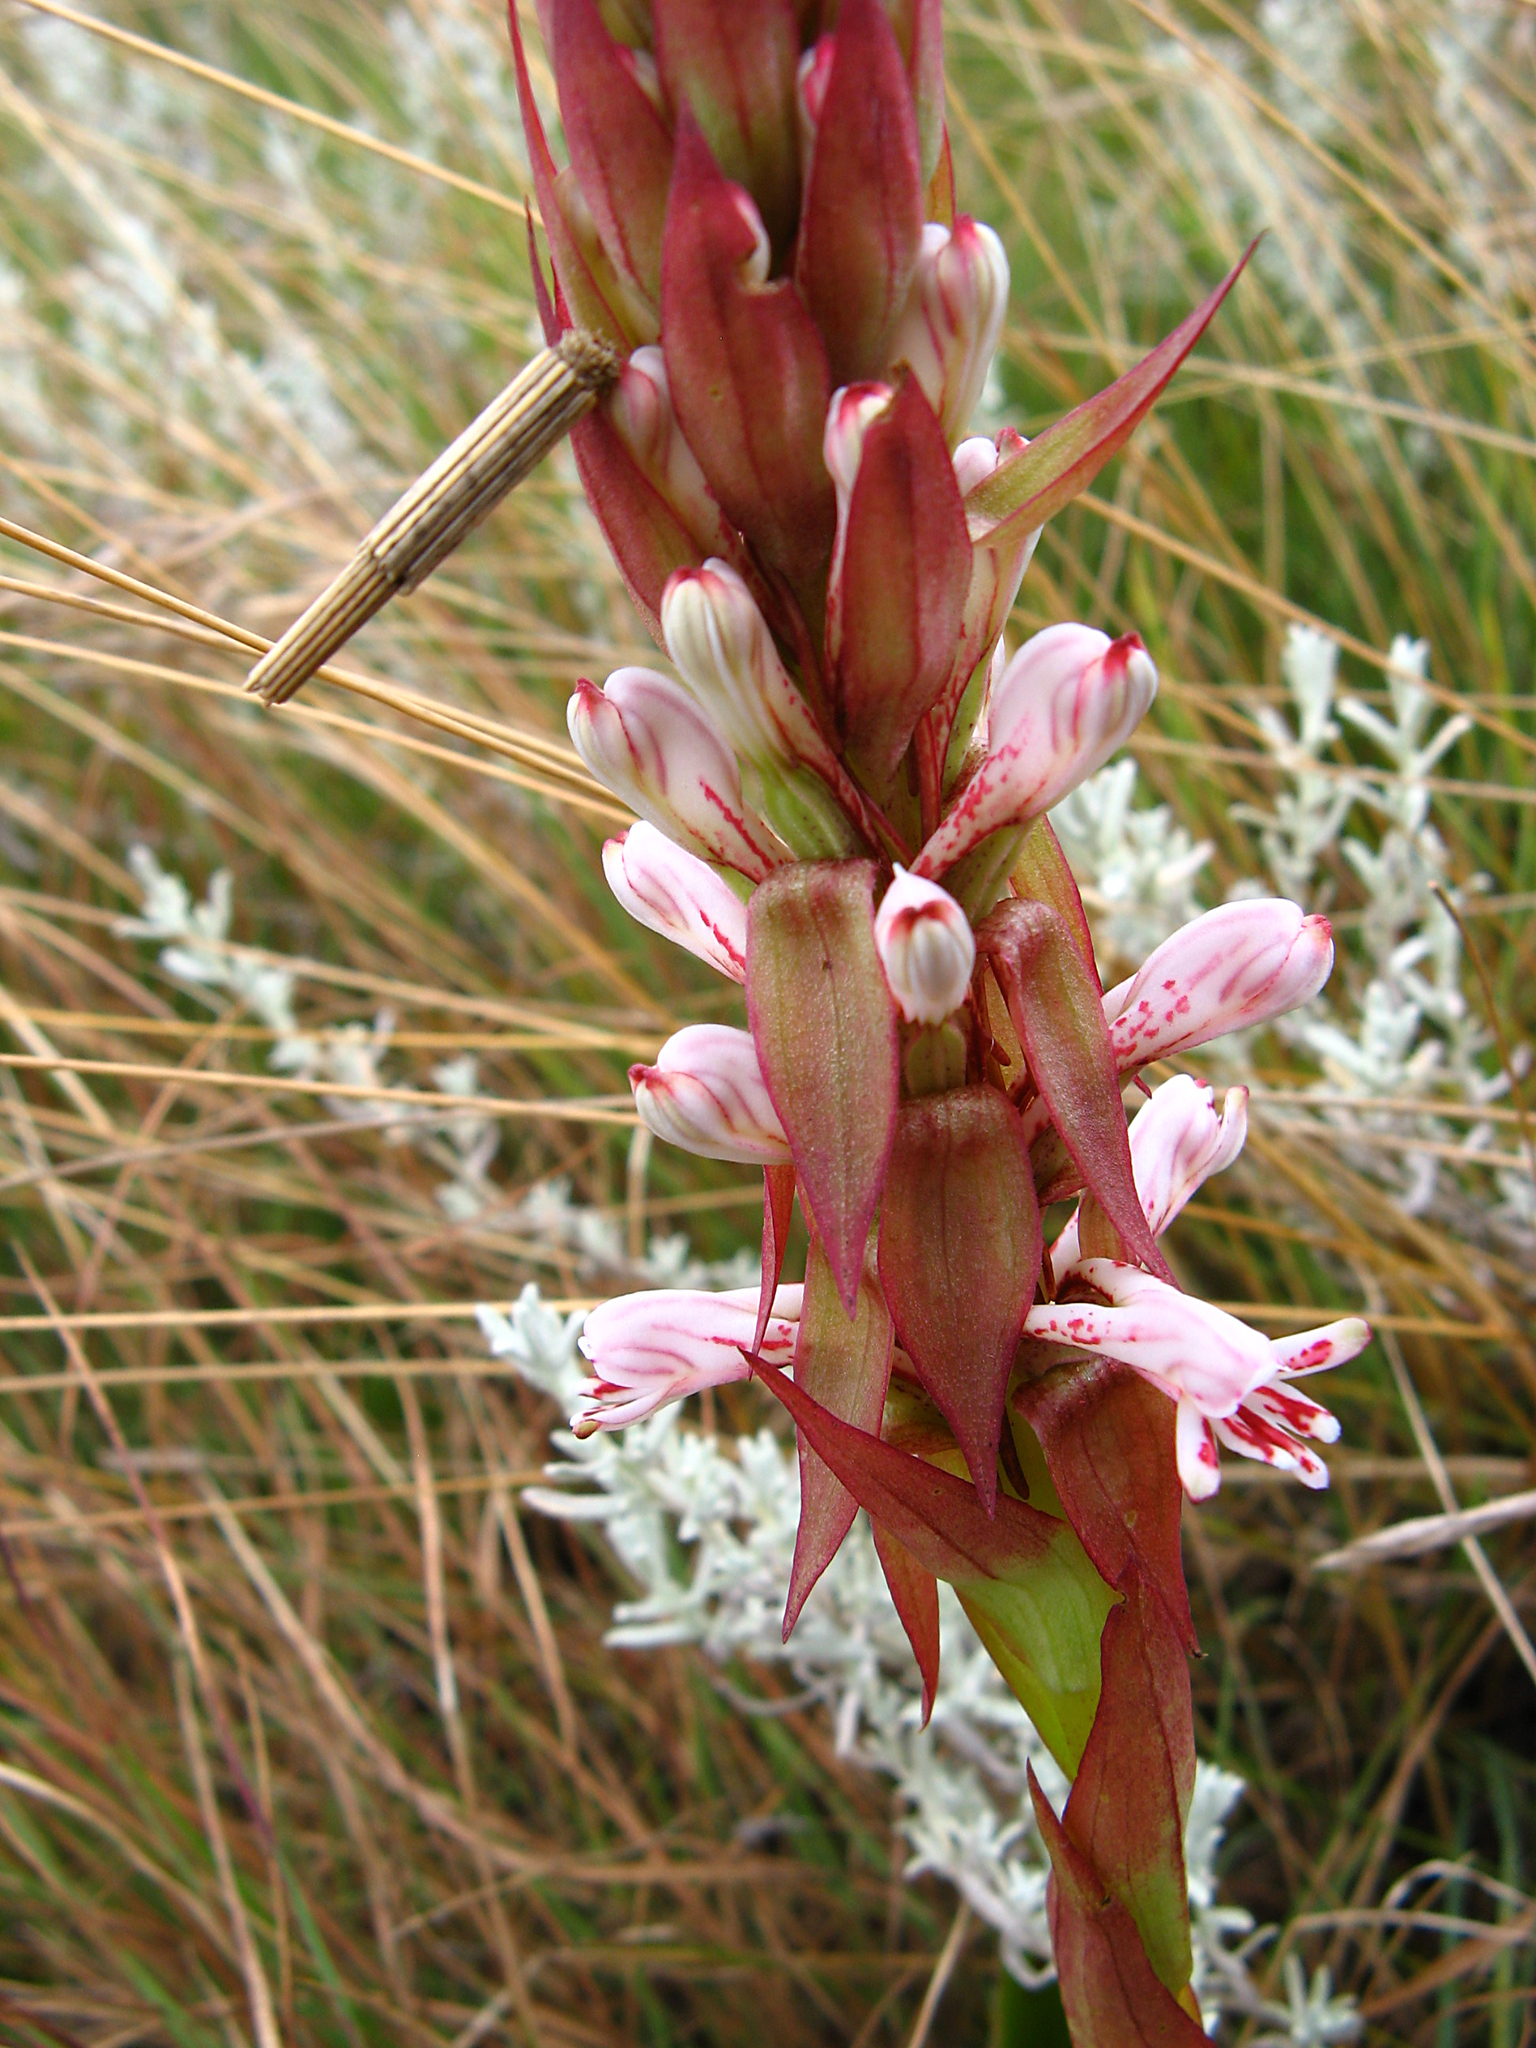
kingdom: Plantae
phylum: Tracheophyta
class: Liliopsida
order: Asparagales
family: Orchidaceae
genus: Satyrium
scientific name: Satyrium longicauda
